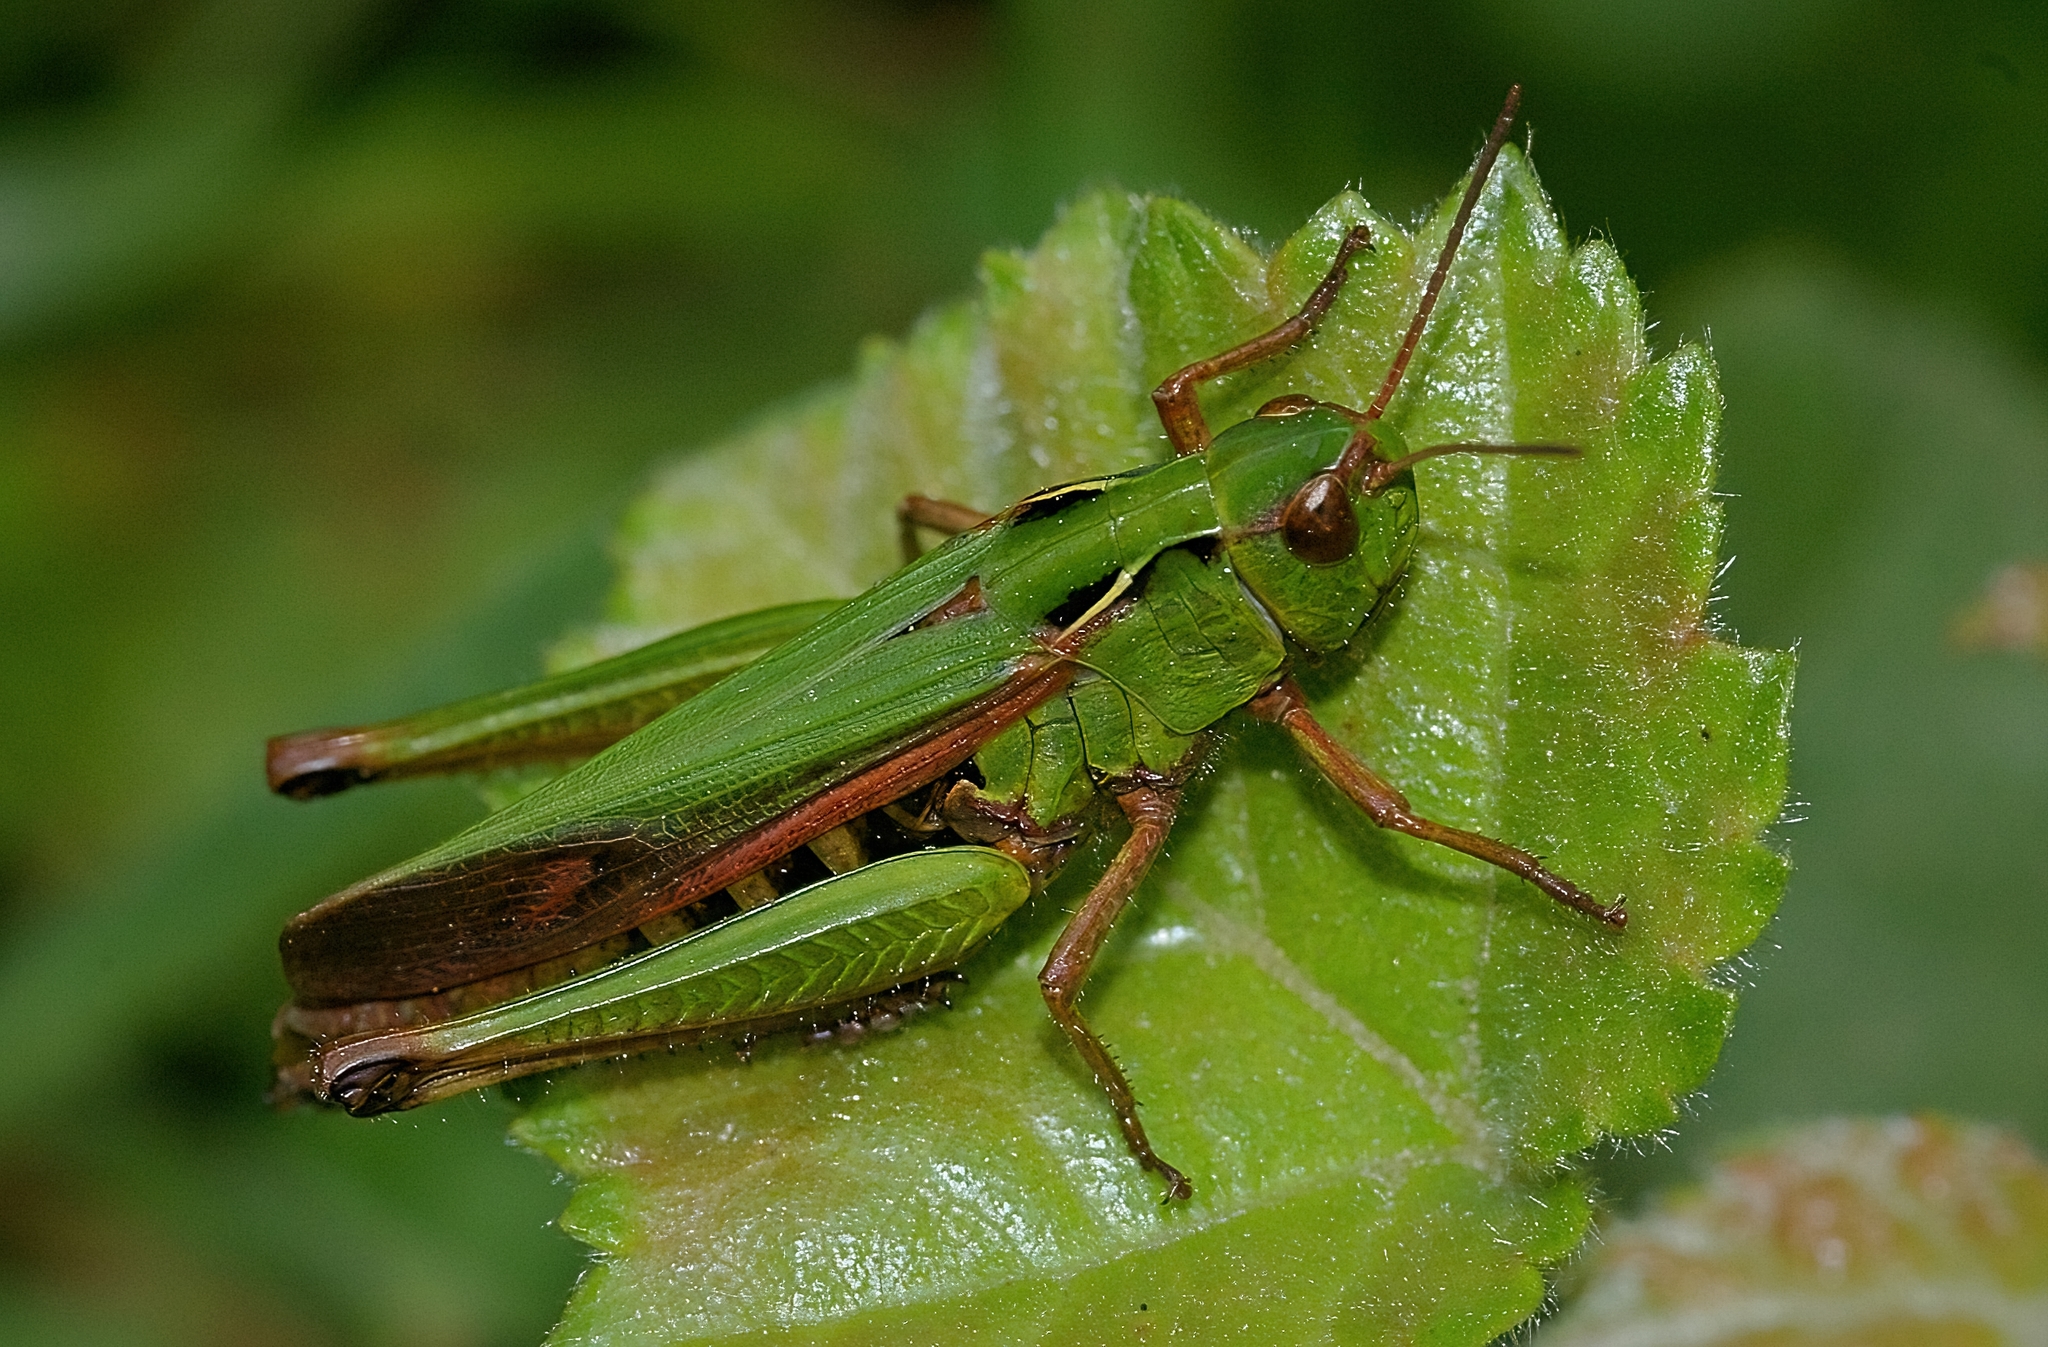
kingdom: Animalia
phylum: Arthropoda
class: Insecta
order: Orthoptera
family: Acrididae
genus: Omocestus
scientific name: Omocestus viridulus
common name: Common green grasshopper
